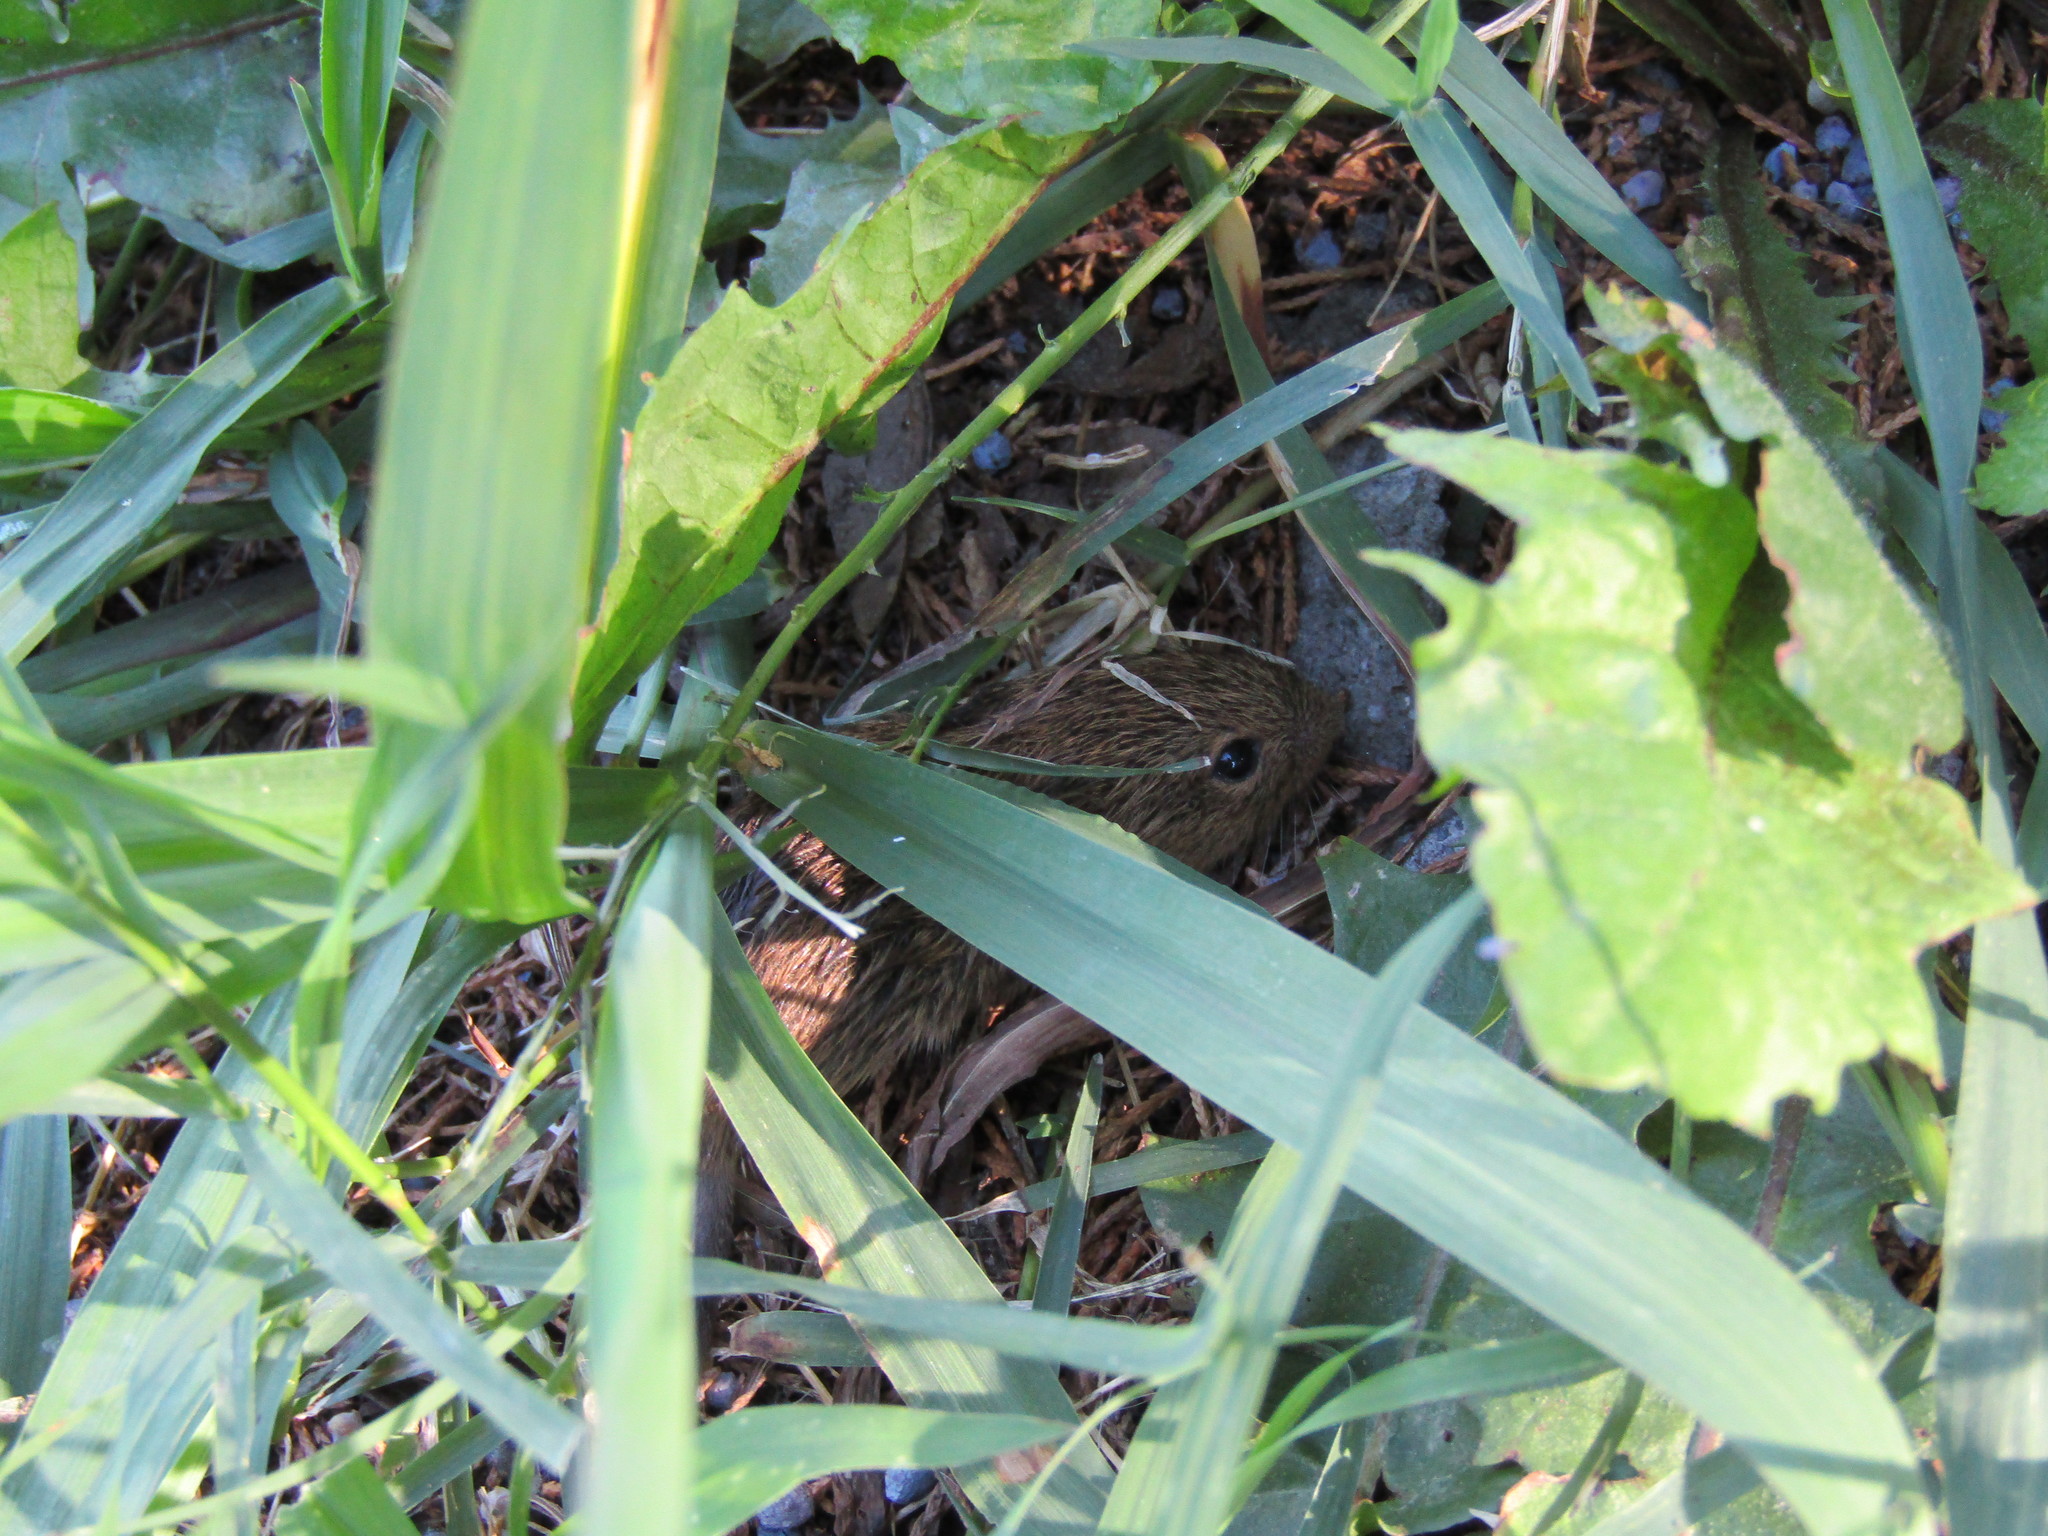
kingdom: Animalia
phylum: Chordata
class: Mammalia
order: Rodentia
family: Cricetidae
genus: Sigmodon
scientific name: Sigmodon hispidus
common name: Hispid cotton rat
